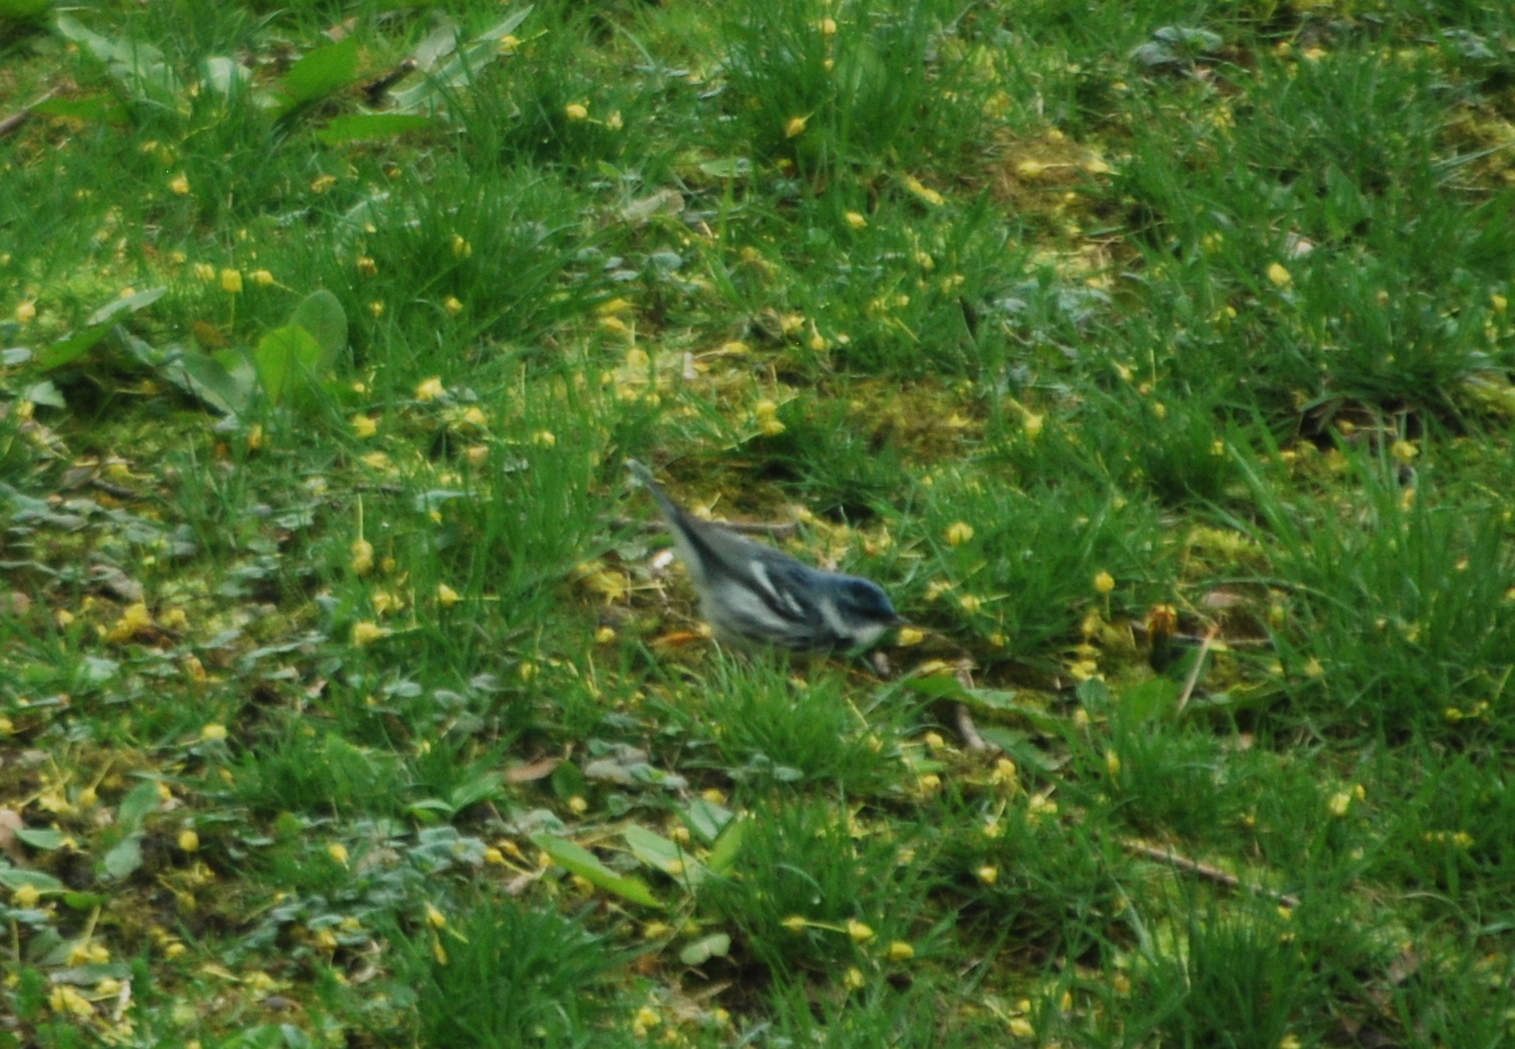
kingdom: Animalia
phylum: Chordata
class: Aves
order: Passeriformes
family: Parulidae
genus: Setophaga
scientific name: Setophaga cerulea
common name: Cerulean warbler
